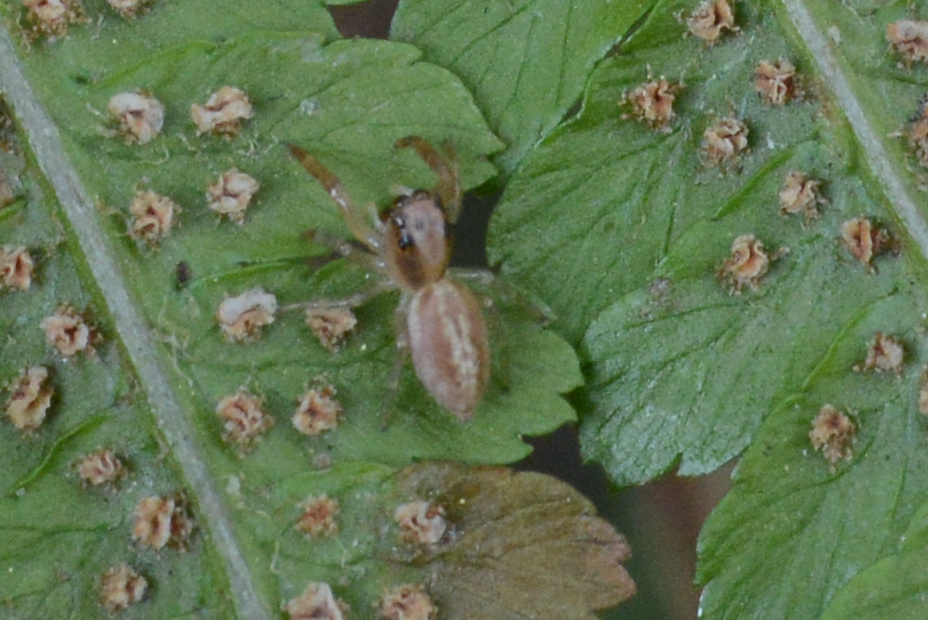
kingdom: Animalia
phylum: Arthropoda
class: Arachnida
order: Araneae
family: Salticidae
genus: Trite
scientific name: Trite mustilina
